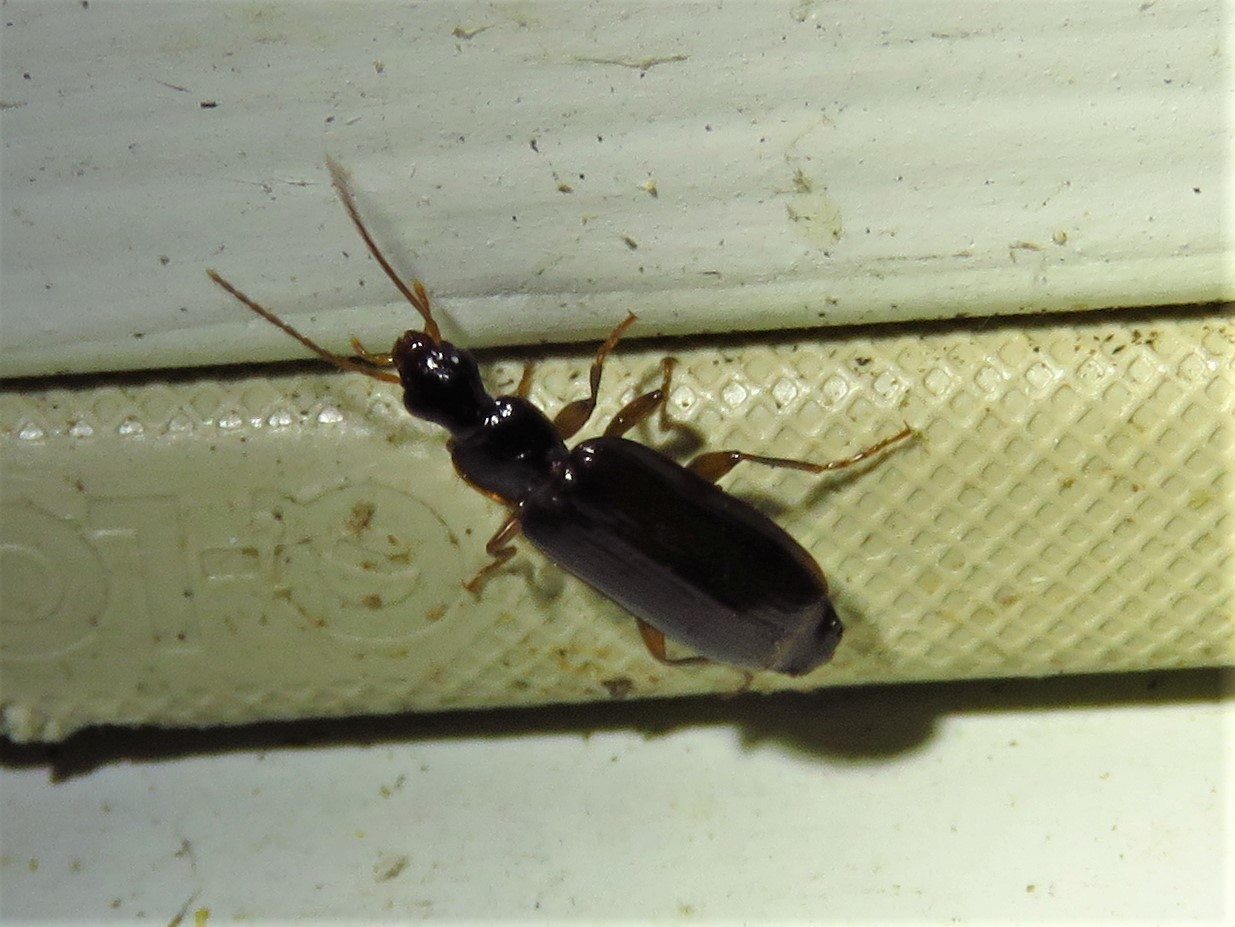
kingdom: Animalia
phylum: Arthropoda
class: Insecta
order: Coleoptera
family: Carabidae
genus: Dromius
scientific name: Dromius piceus
